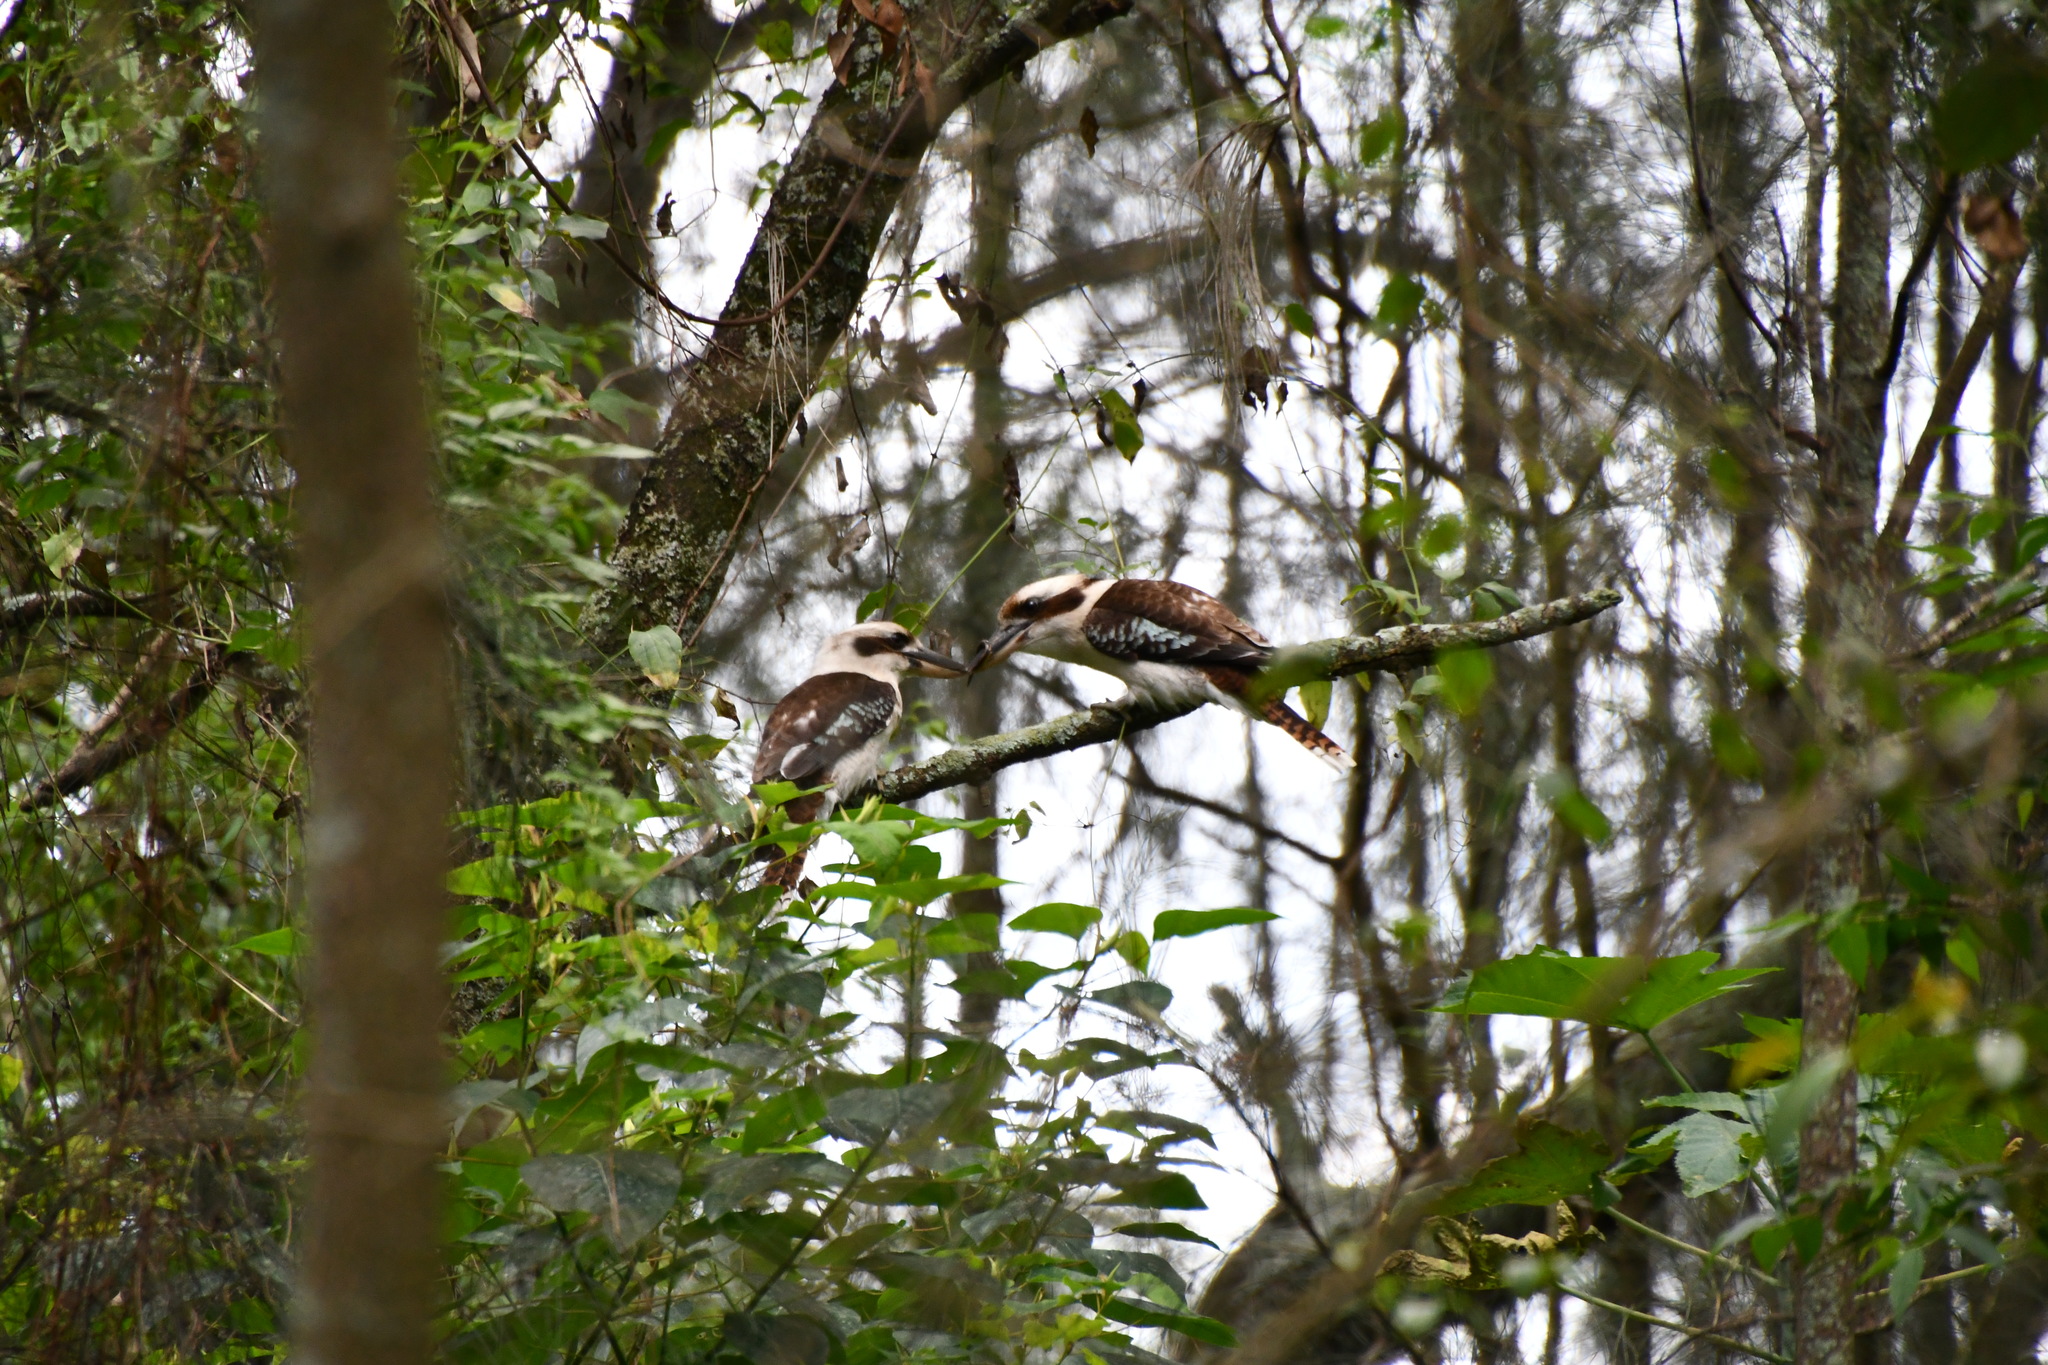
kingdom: Animalia
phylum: Chordata
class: Aves
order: Coraciiformes
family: Alcedinidae
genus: Dacelo
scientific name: Dacelo novaeguineae
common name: Laughing kookaburra
